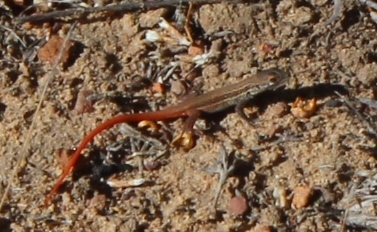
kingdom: Animalia
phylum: Chordata
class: Squamata
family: Lacertidae
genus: Pedioplanis
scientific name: Pedioplanis lineoocellata
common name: Spotted sand lizard
